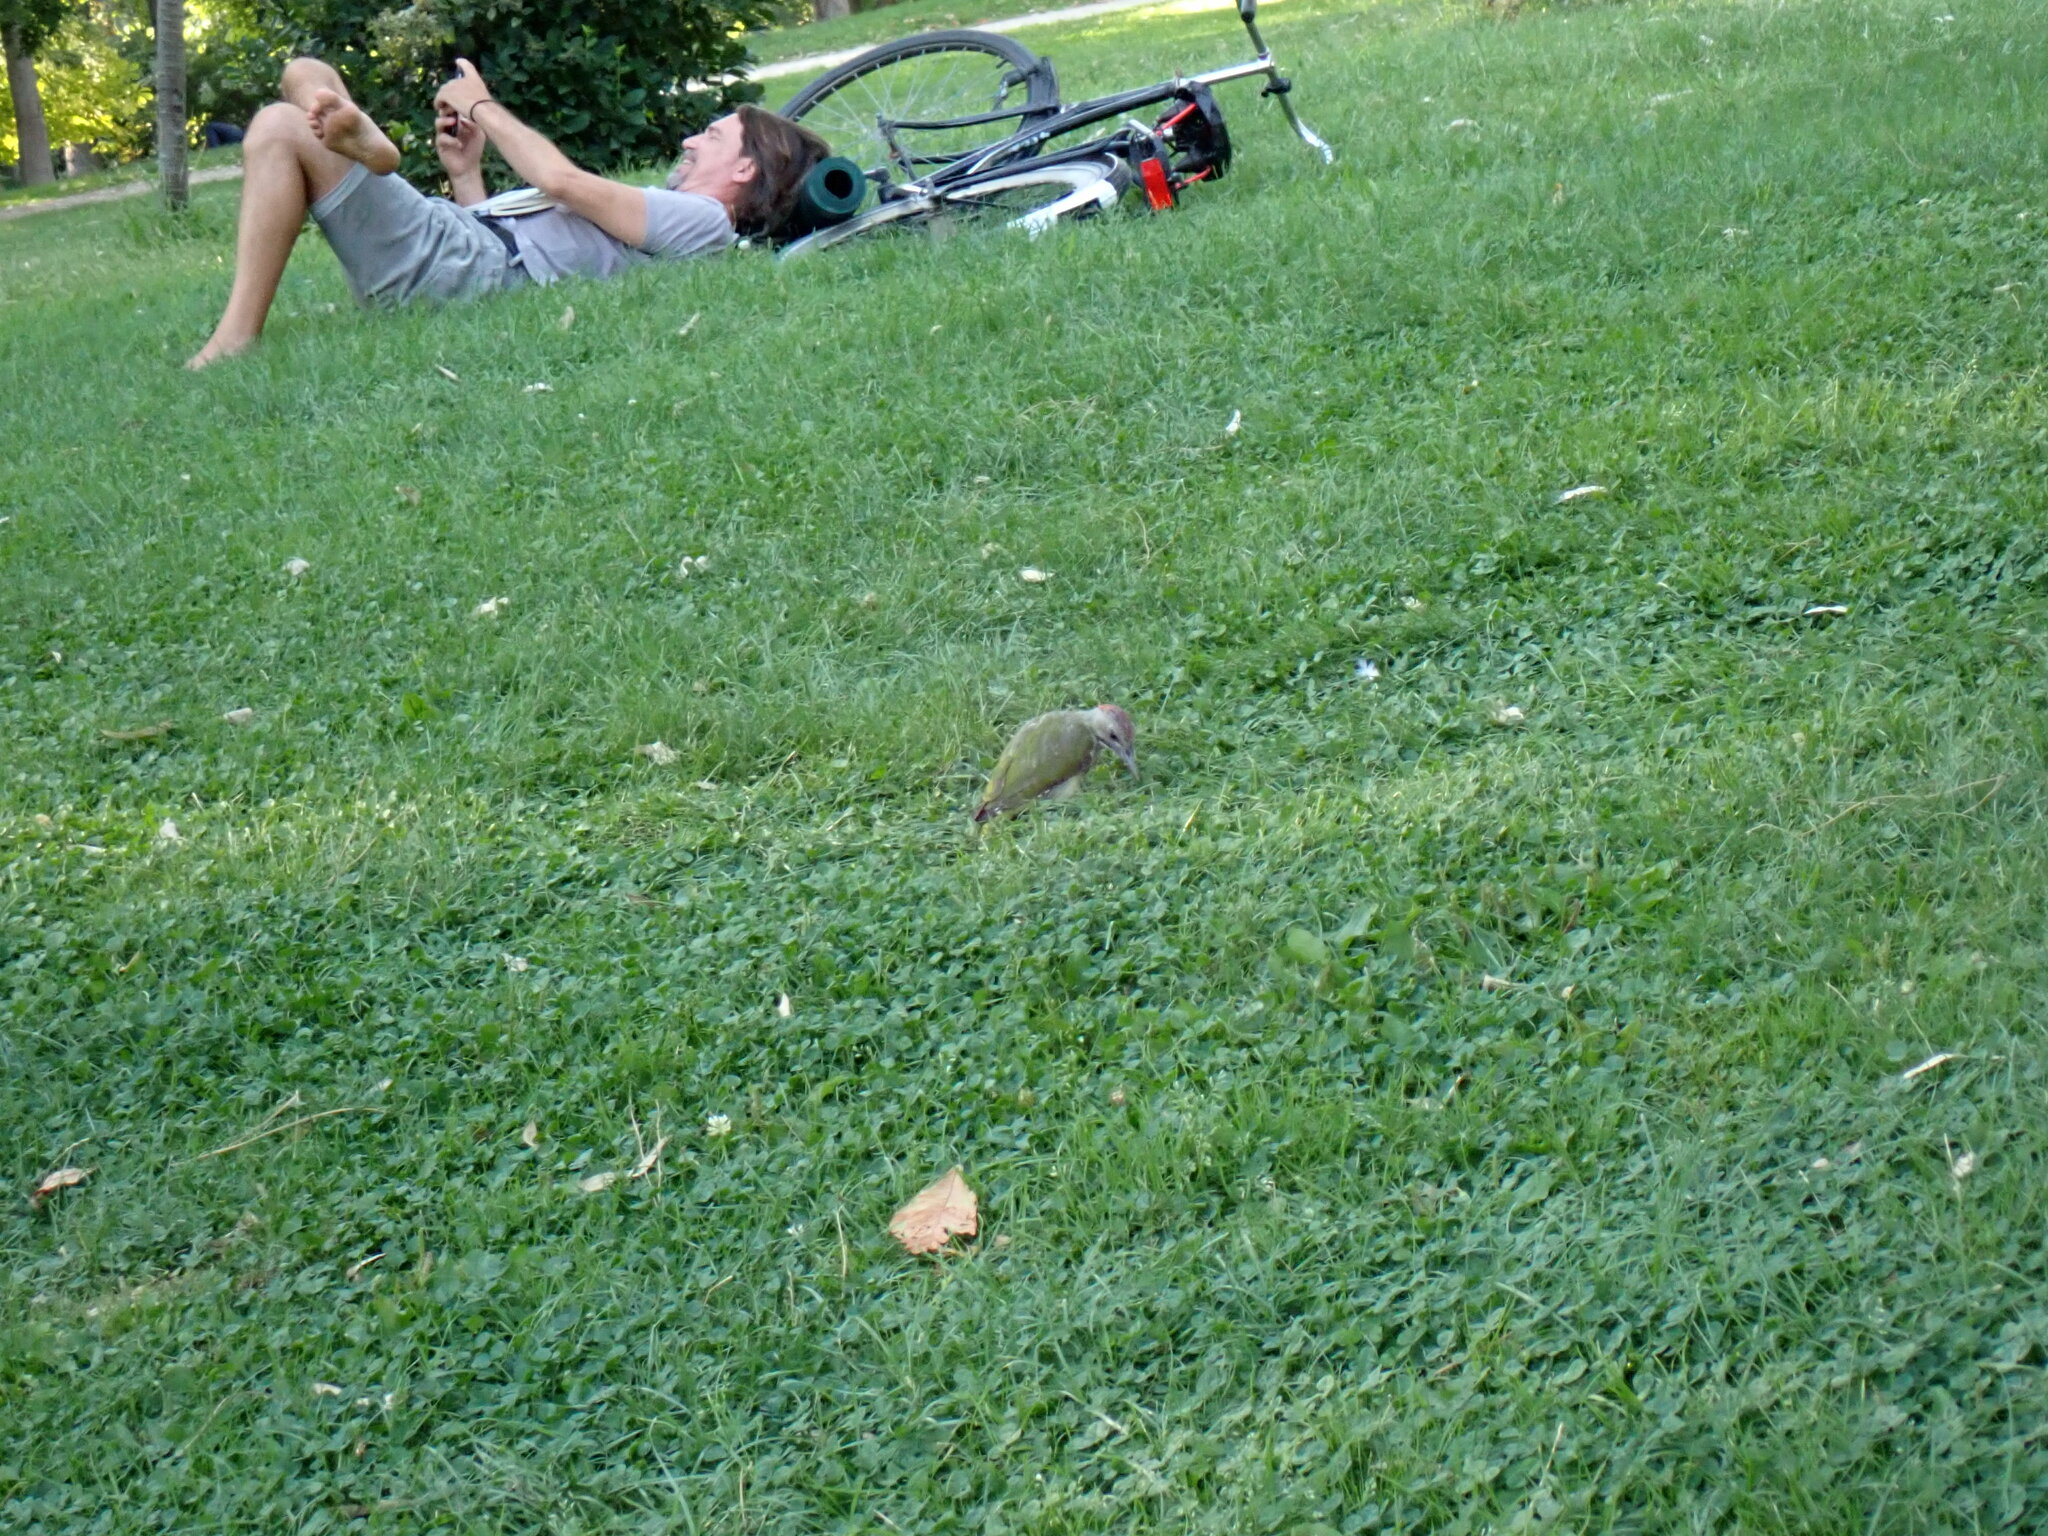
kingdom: Animalia
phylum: Chordata
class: Aves
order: Piciformes
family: Picidae
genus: Picus
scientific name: Picus sharpei
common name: Iberian green woodpecker
